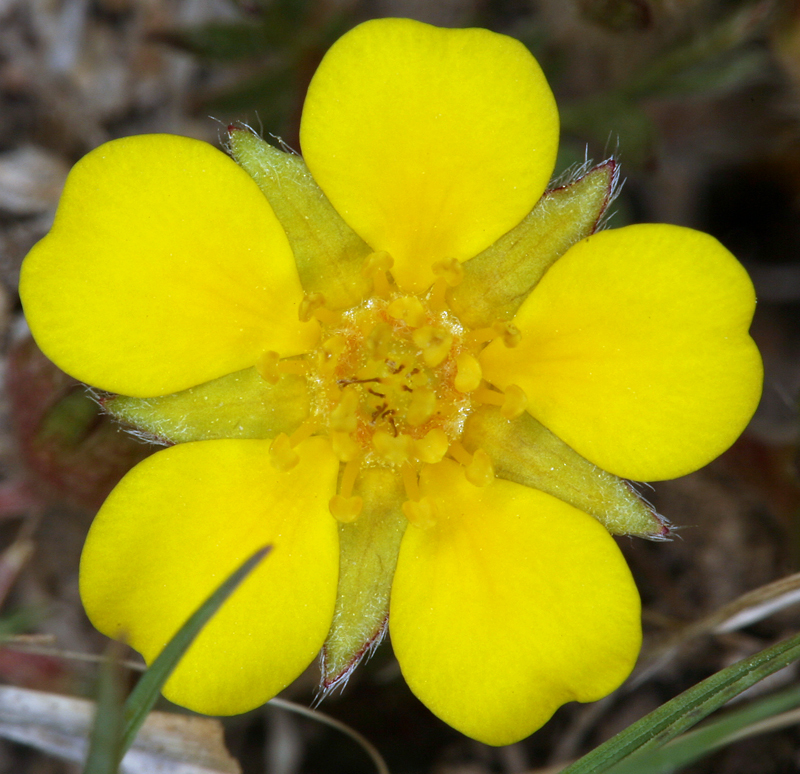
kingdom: Plantae
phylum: Tracheophyta
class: Magnoliopsida
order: Rosales
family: Rosaceae
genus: Potentilla
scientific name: Potentilla millefolia
